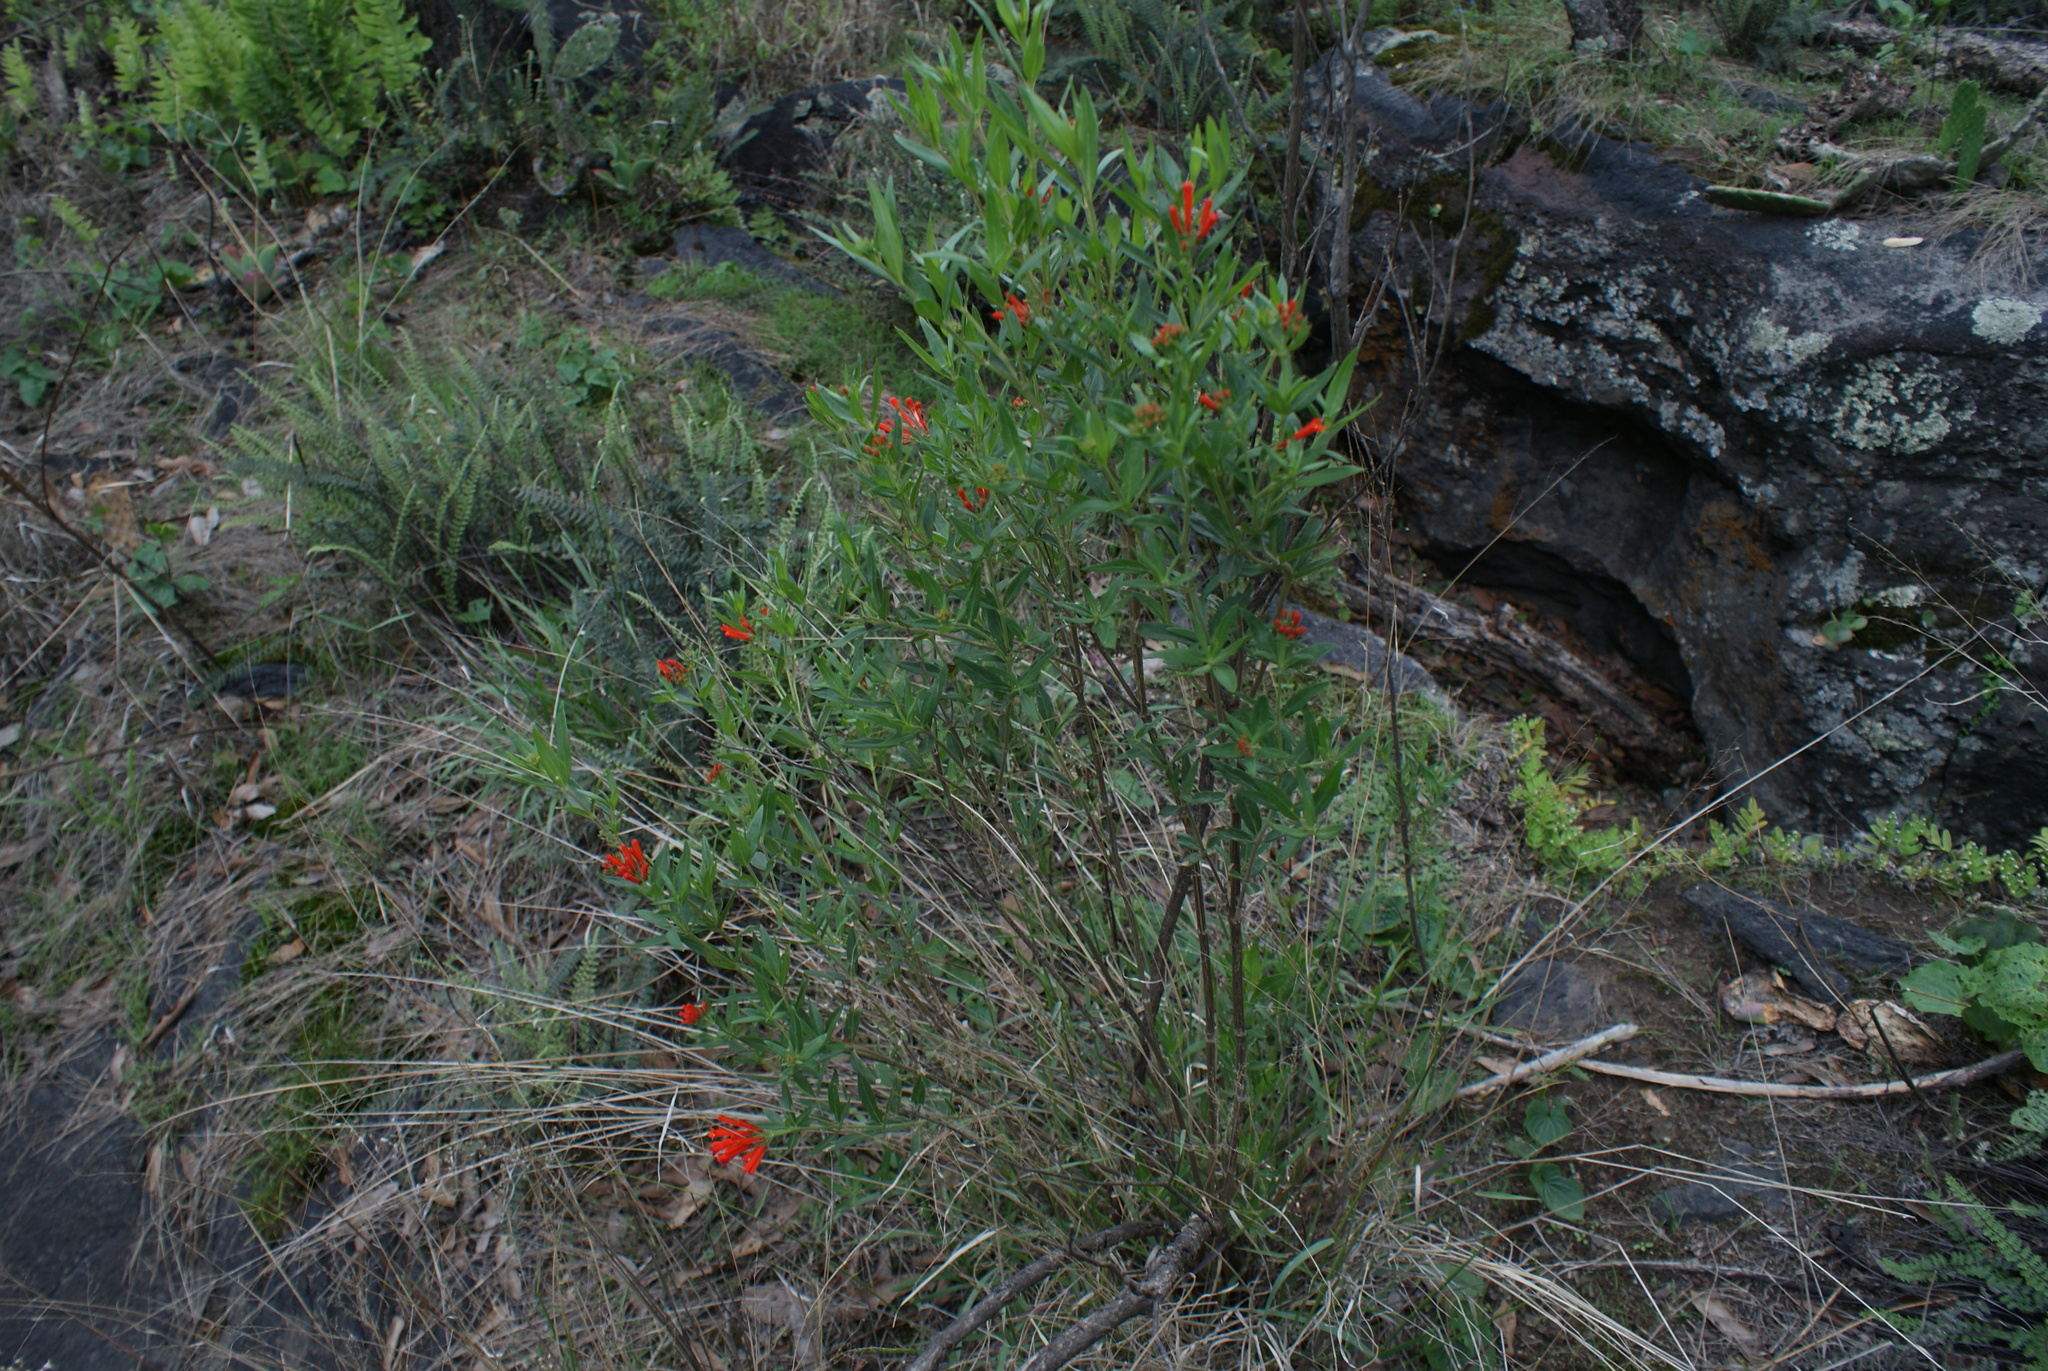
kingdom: Plantae
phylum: Tracheophyta
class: Magnoliopsida
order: Gentianales
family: Rubiaceae
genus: Bouvardia
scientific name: Bouvardia ternifolia
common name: Scarlet bouvardia
